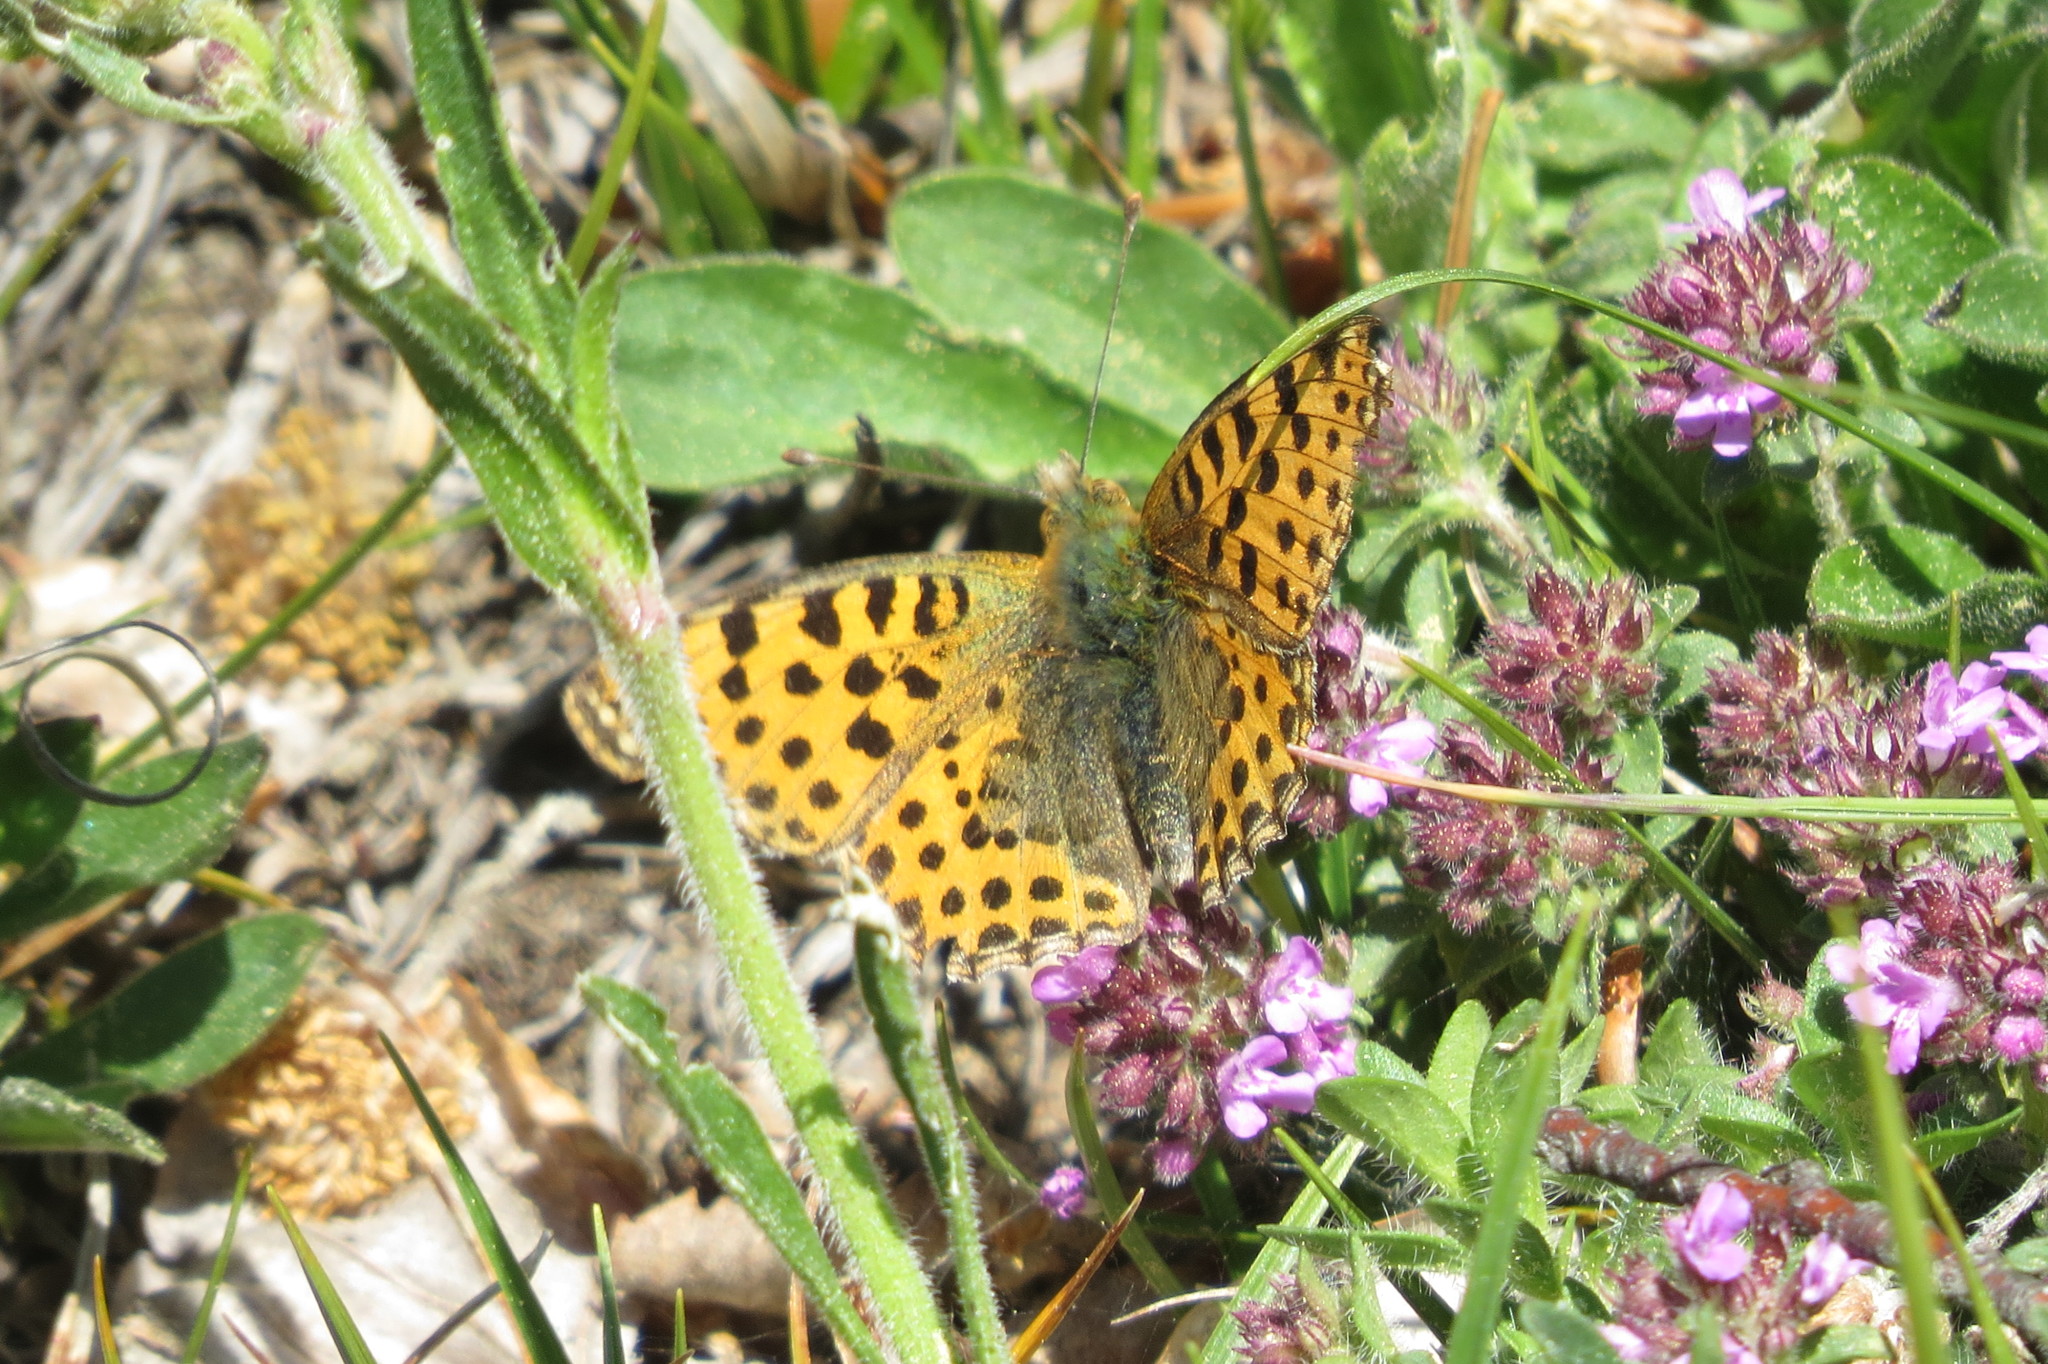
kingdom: Animalia
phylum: Arthropoda
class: Insecta
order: Lepidoptera
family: Nymphalidae
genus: Issoria
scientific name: Issoria lathonia
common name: Queen of spain fritillary
